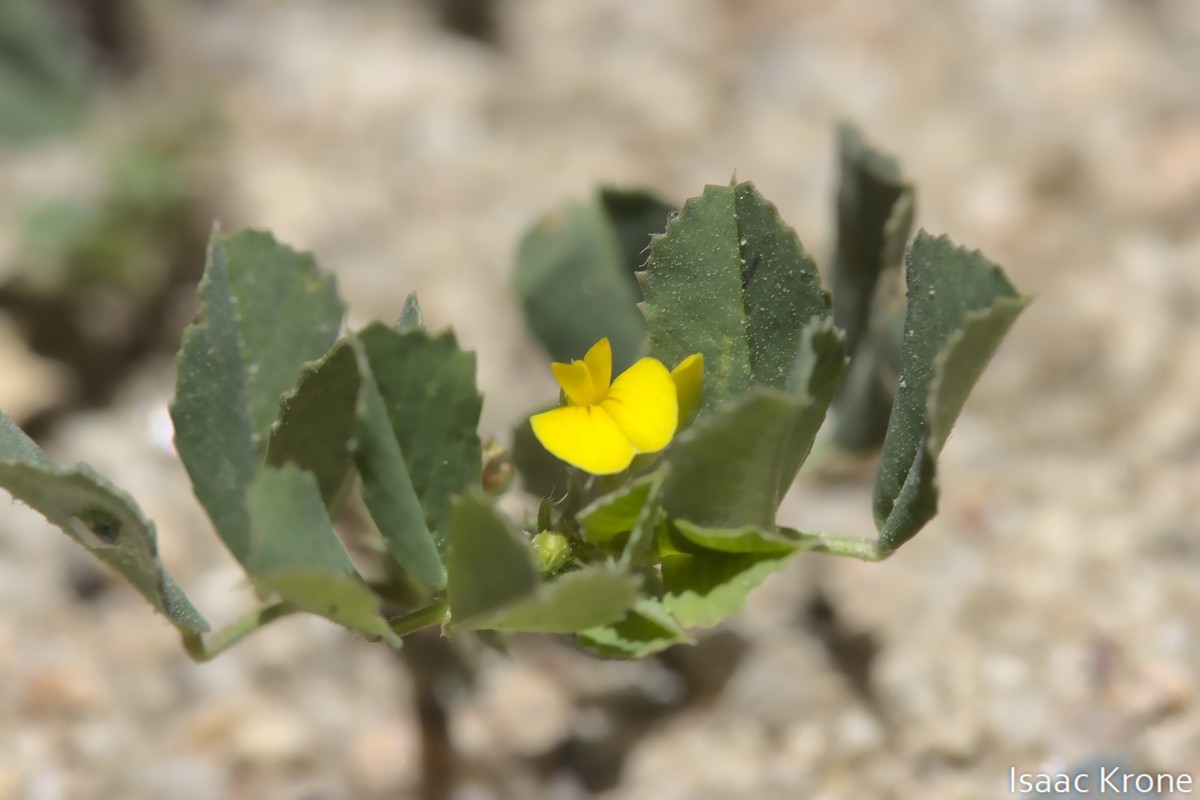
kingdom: Plantae
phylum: Tracheophyta
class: Magnoliopsida
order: Fabales
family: Fabaceae
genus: Medicago
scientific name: Medicago polymorpha
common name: Burclover
